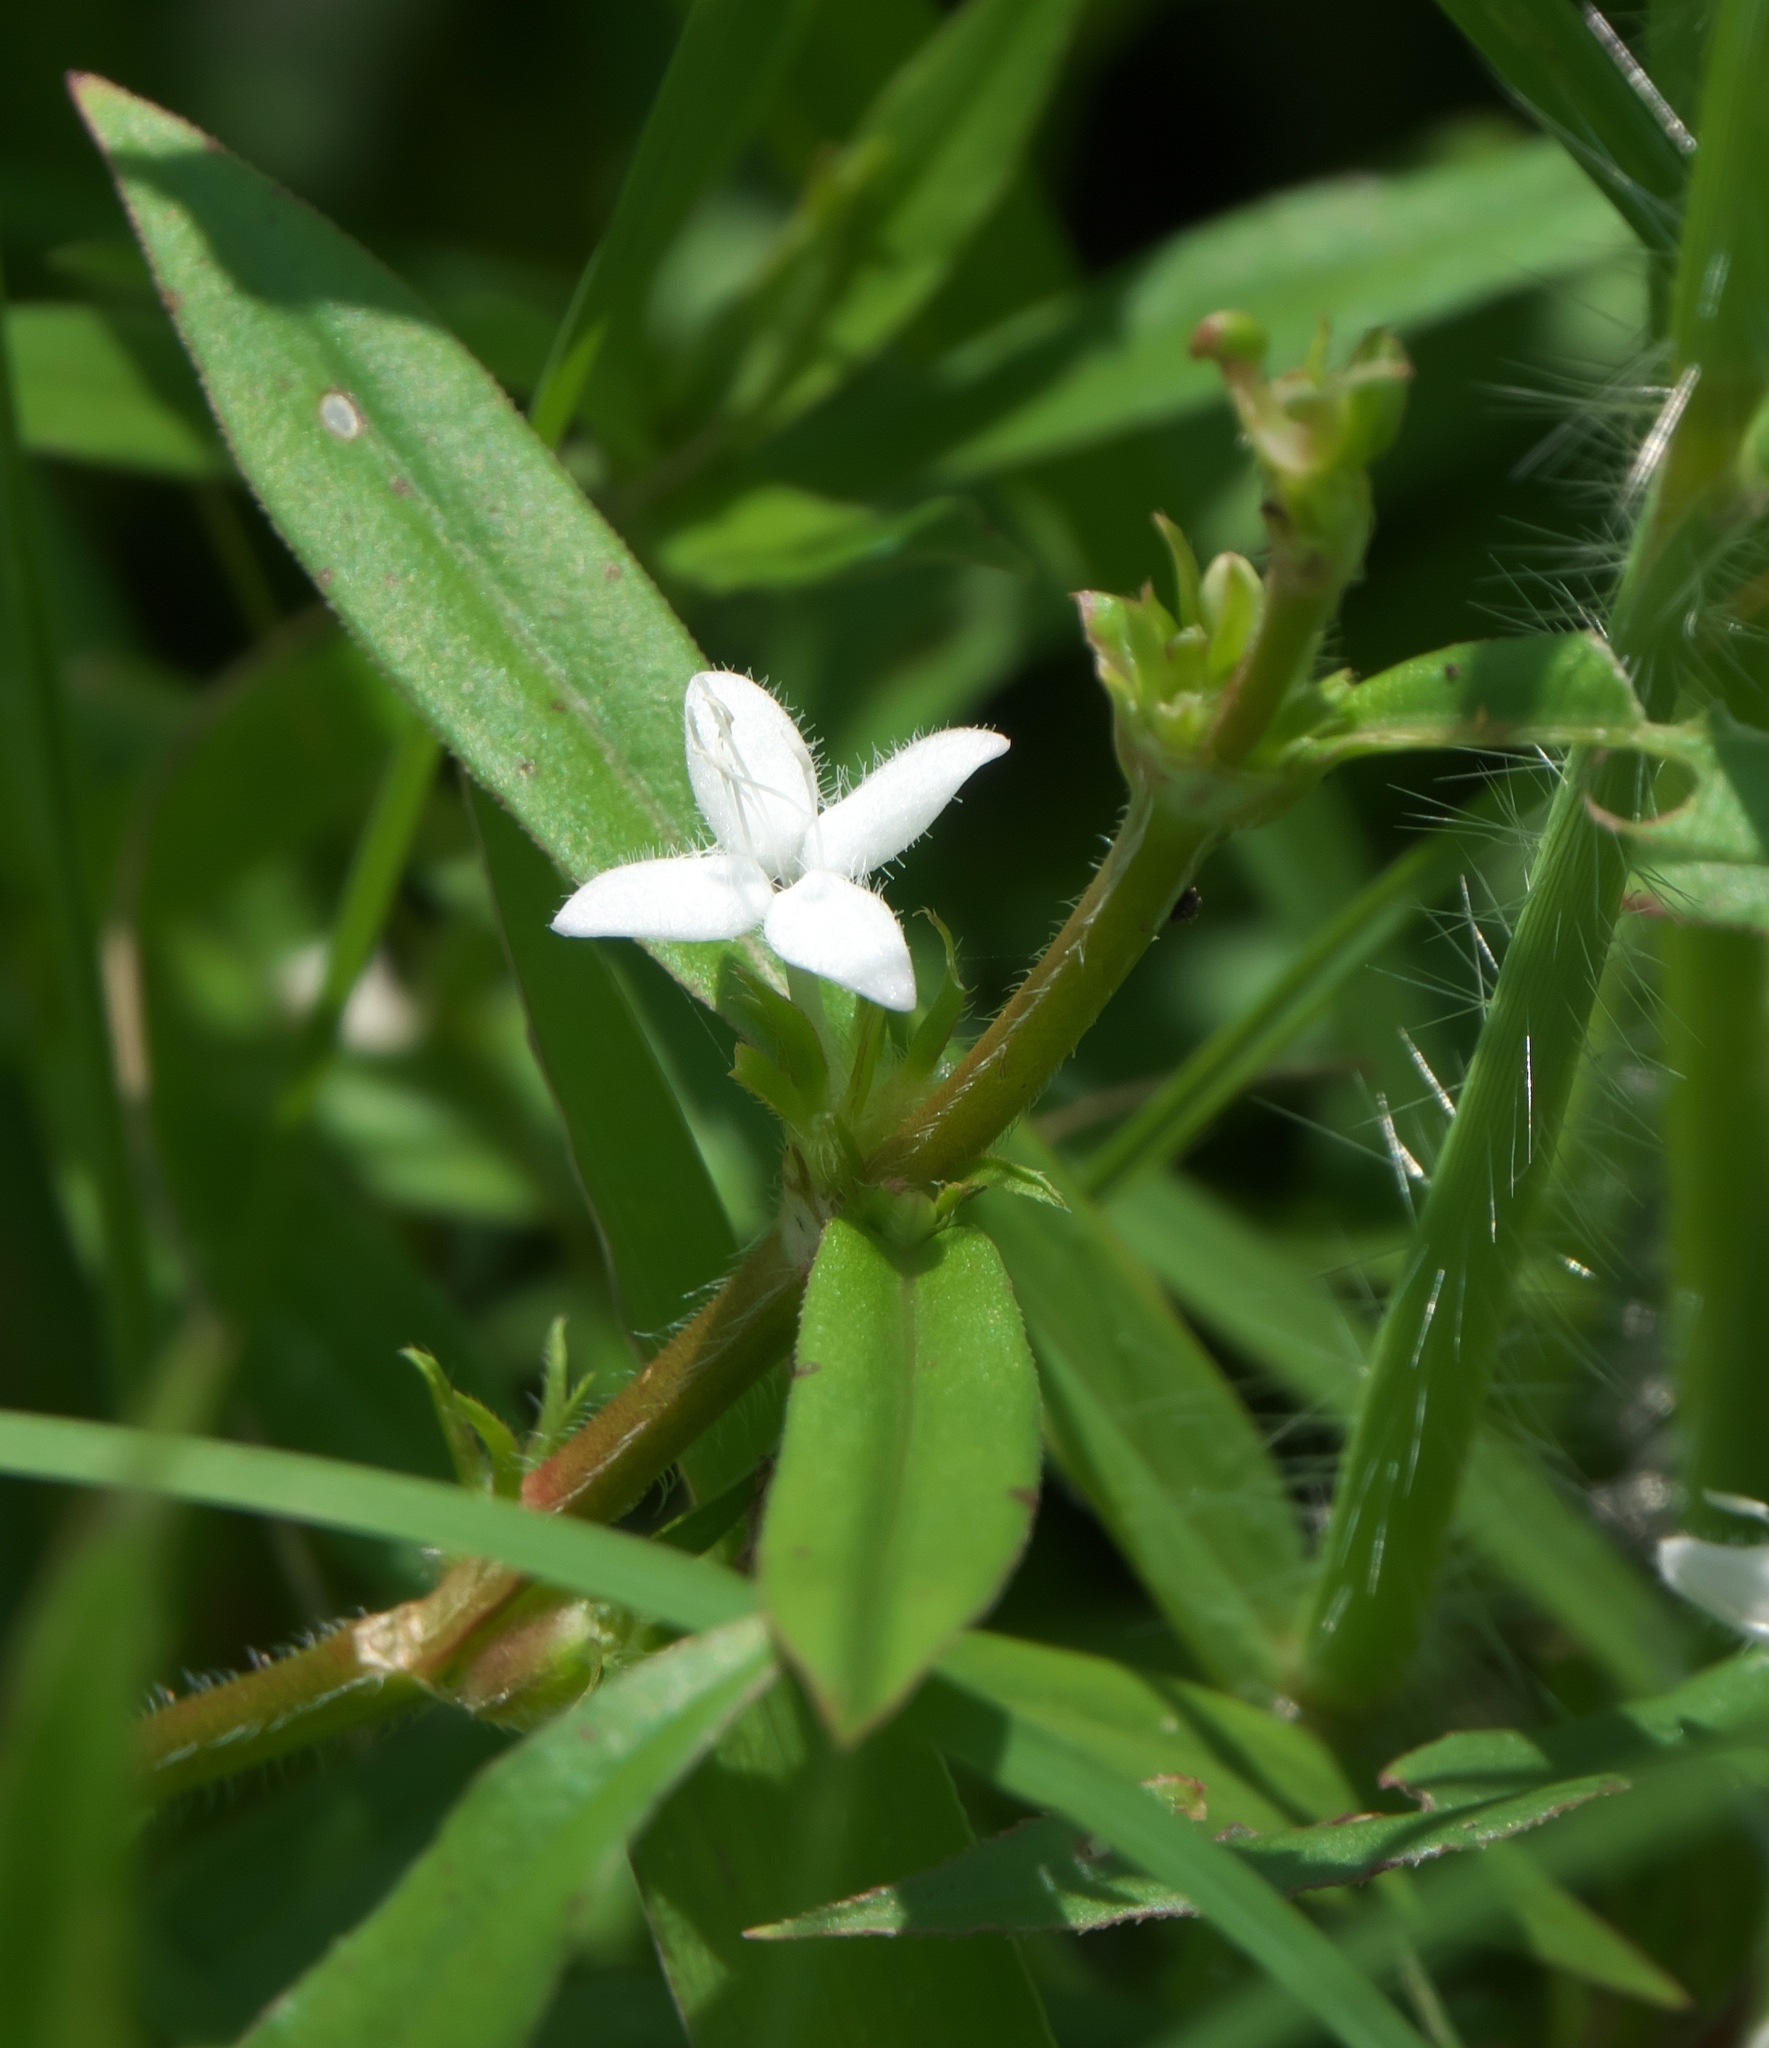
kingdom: Plantae
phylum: Tracheophyta
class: Magnoliopsida
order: Gentianales
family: Rubiaceae
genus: Diodia
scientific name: Diodia virginiana
